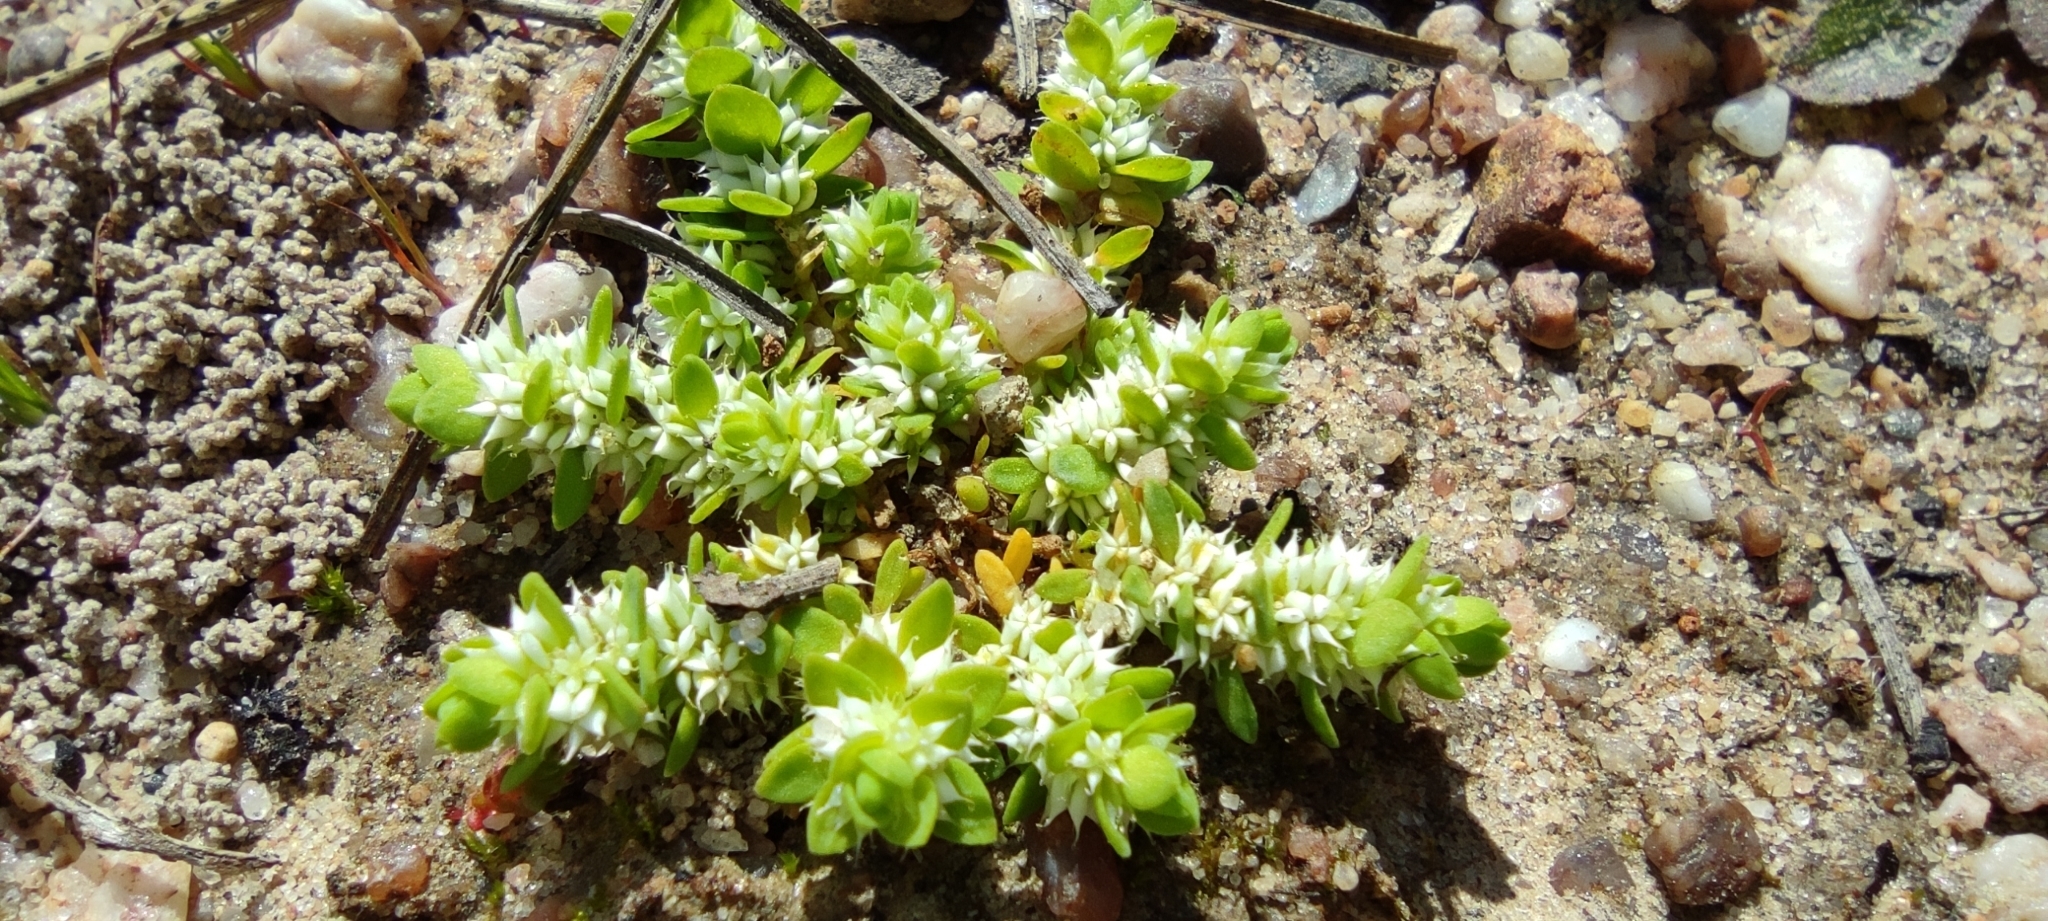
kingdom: Plantae
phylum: Tracheophyta
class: Magnoliopsida
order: Caryophyllales
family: Caryophyllaceae
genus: Illecebrum
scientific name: Illecebrum verticillatum
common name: Coral necklace
